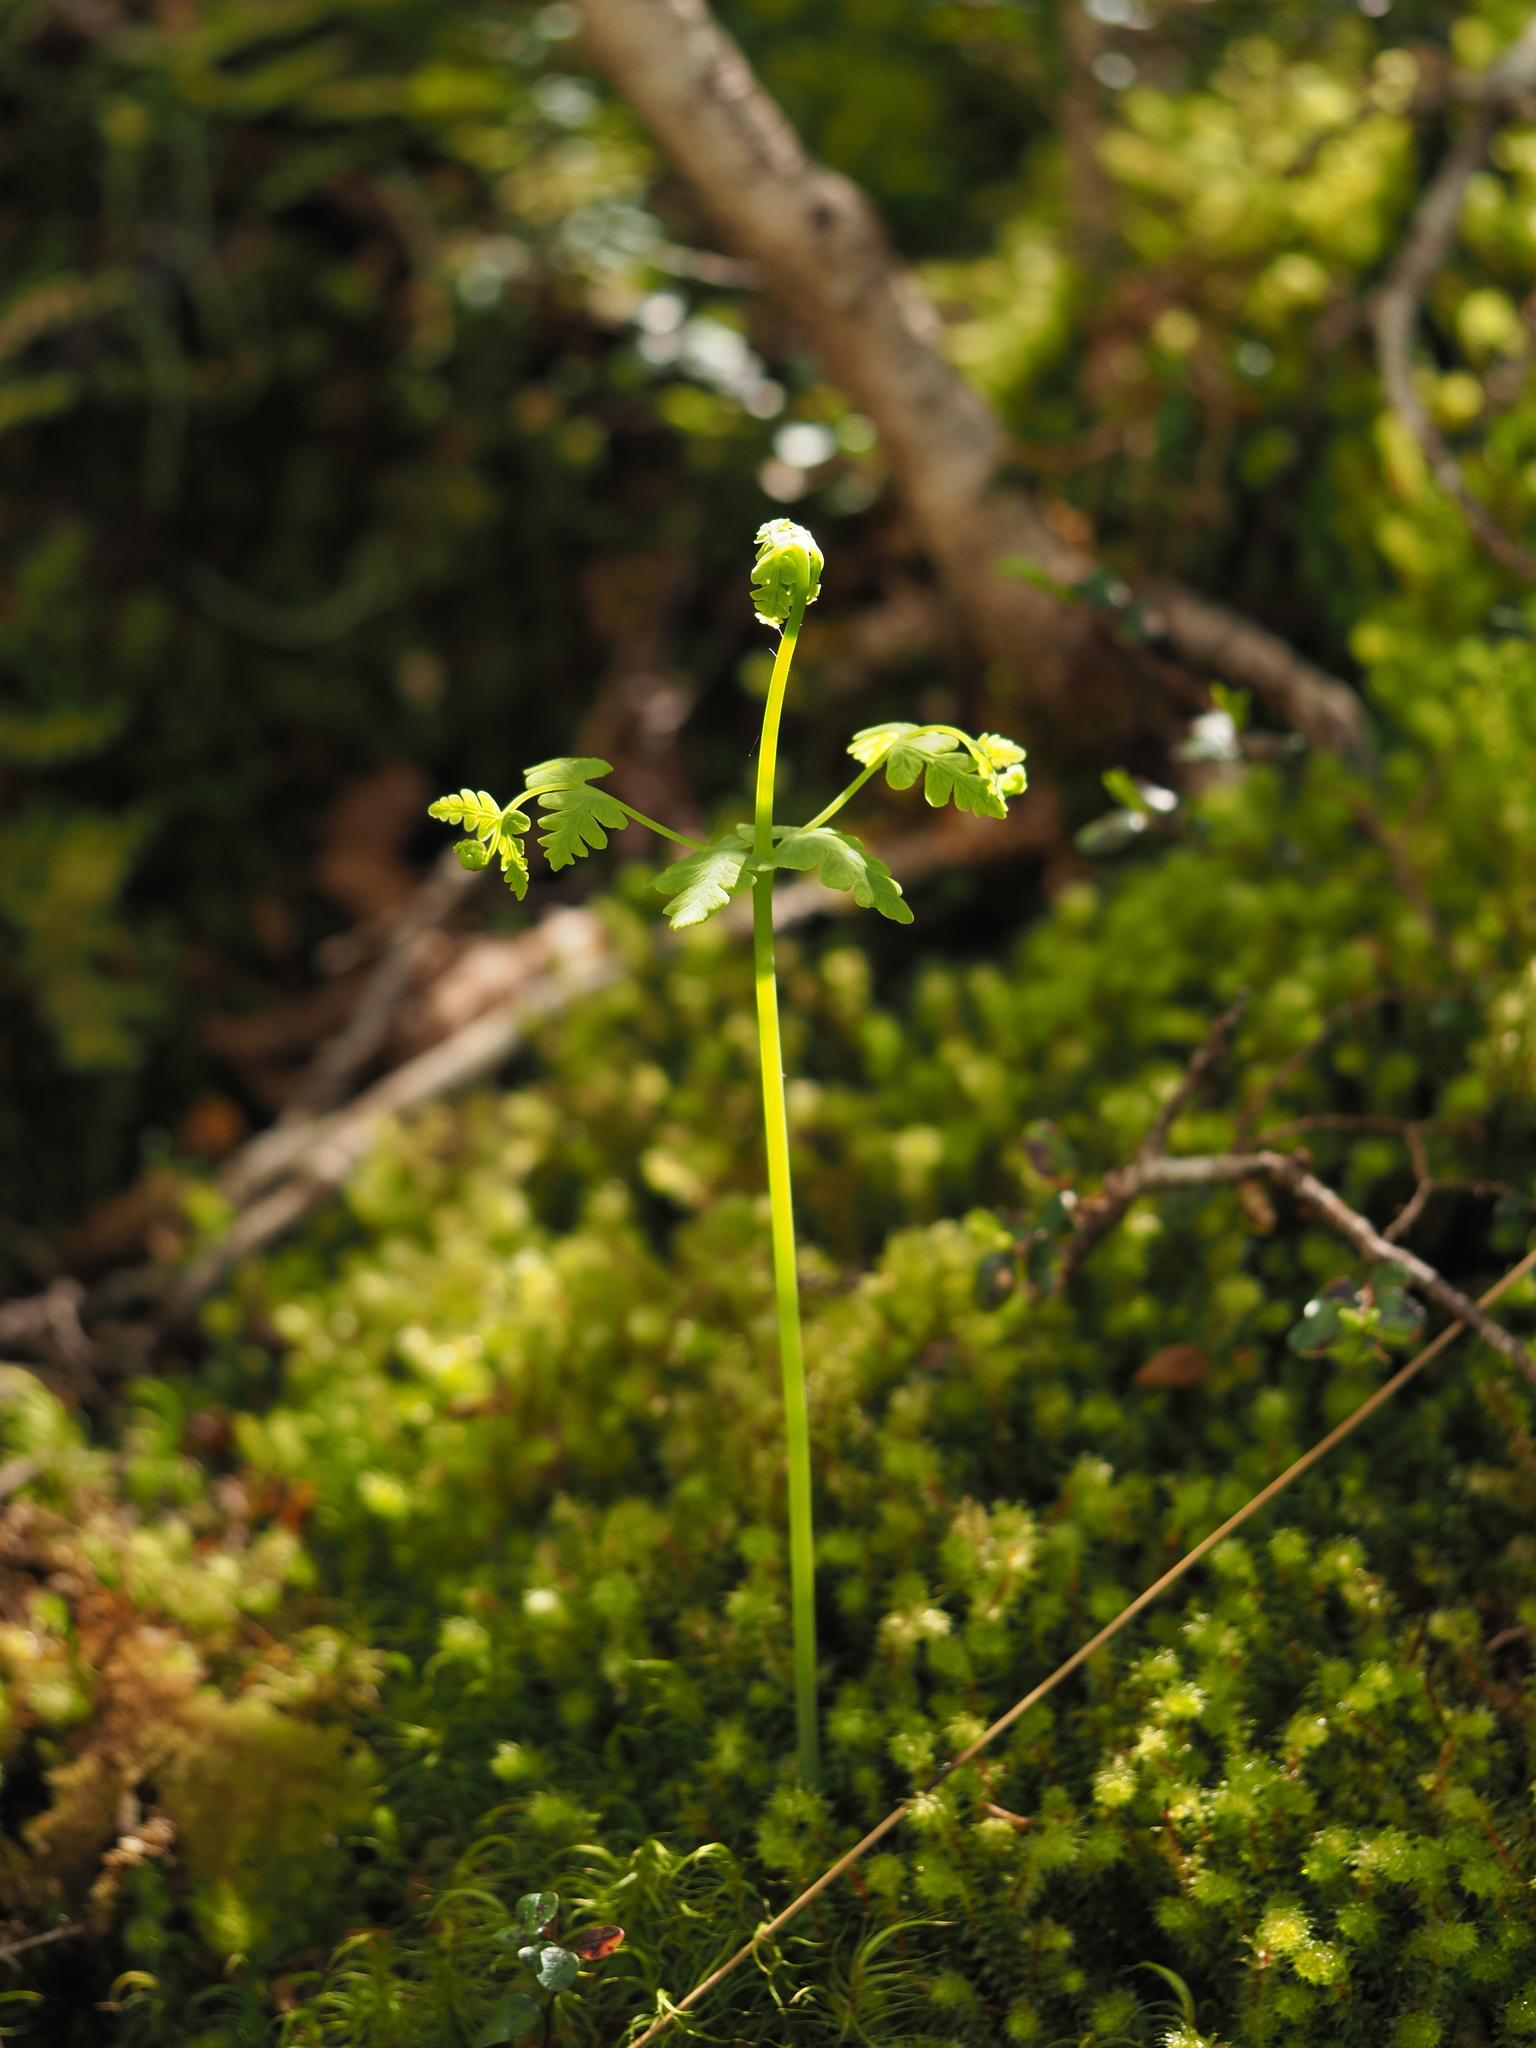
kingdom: Plantae
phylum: Tracheophyta
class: Polypodiopsida
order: Polypodiales
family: Dennstaedtiaceae
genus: Histiopteris
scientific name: Histiopteris incisa
